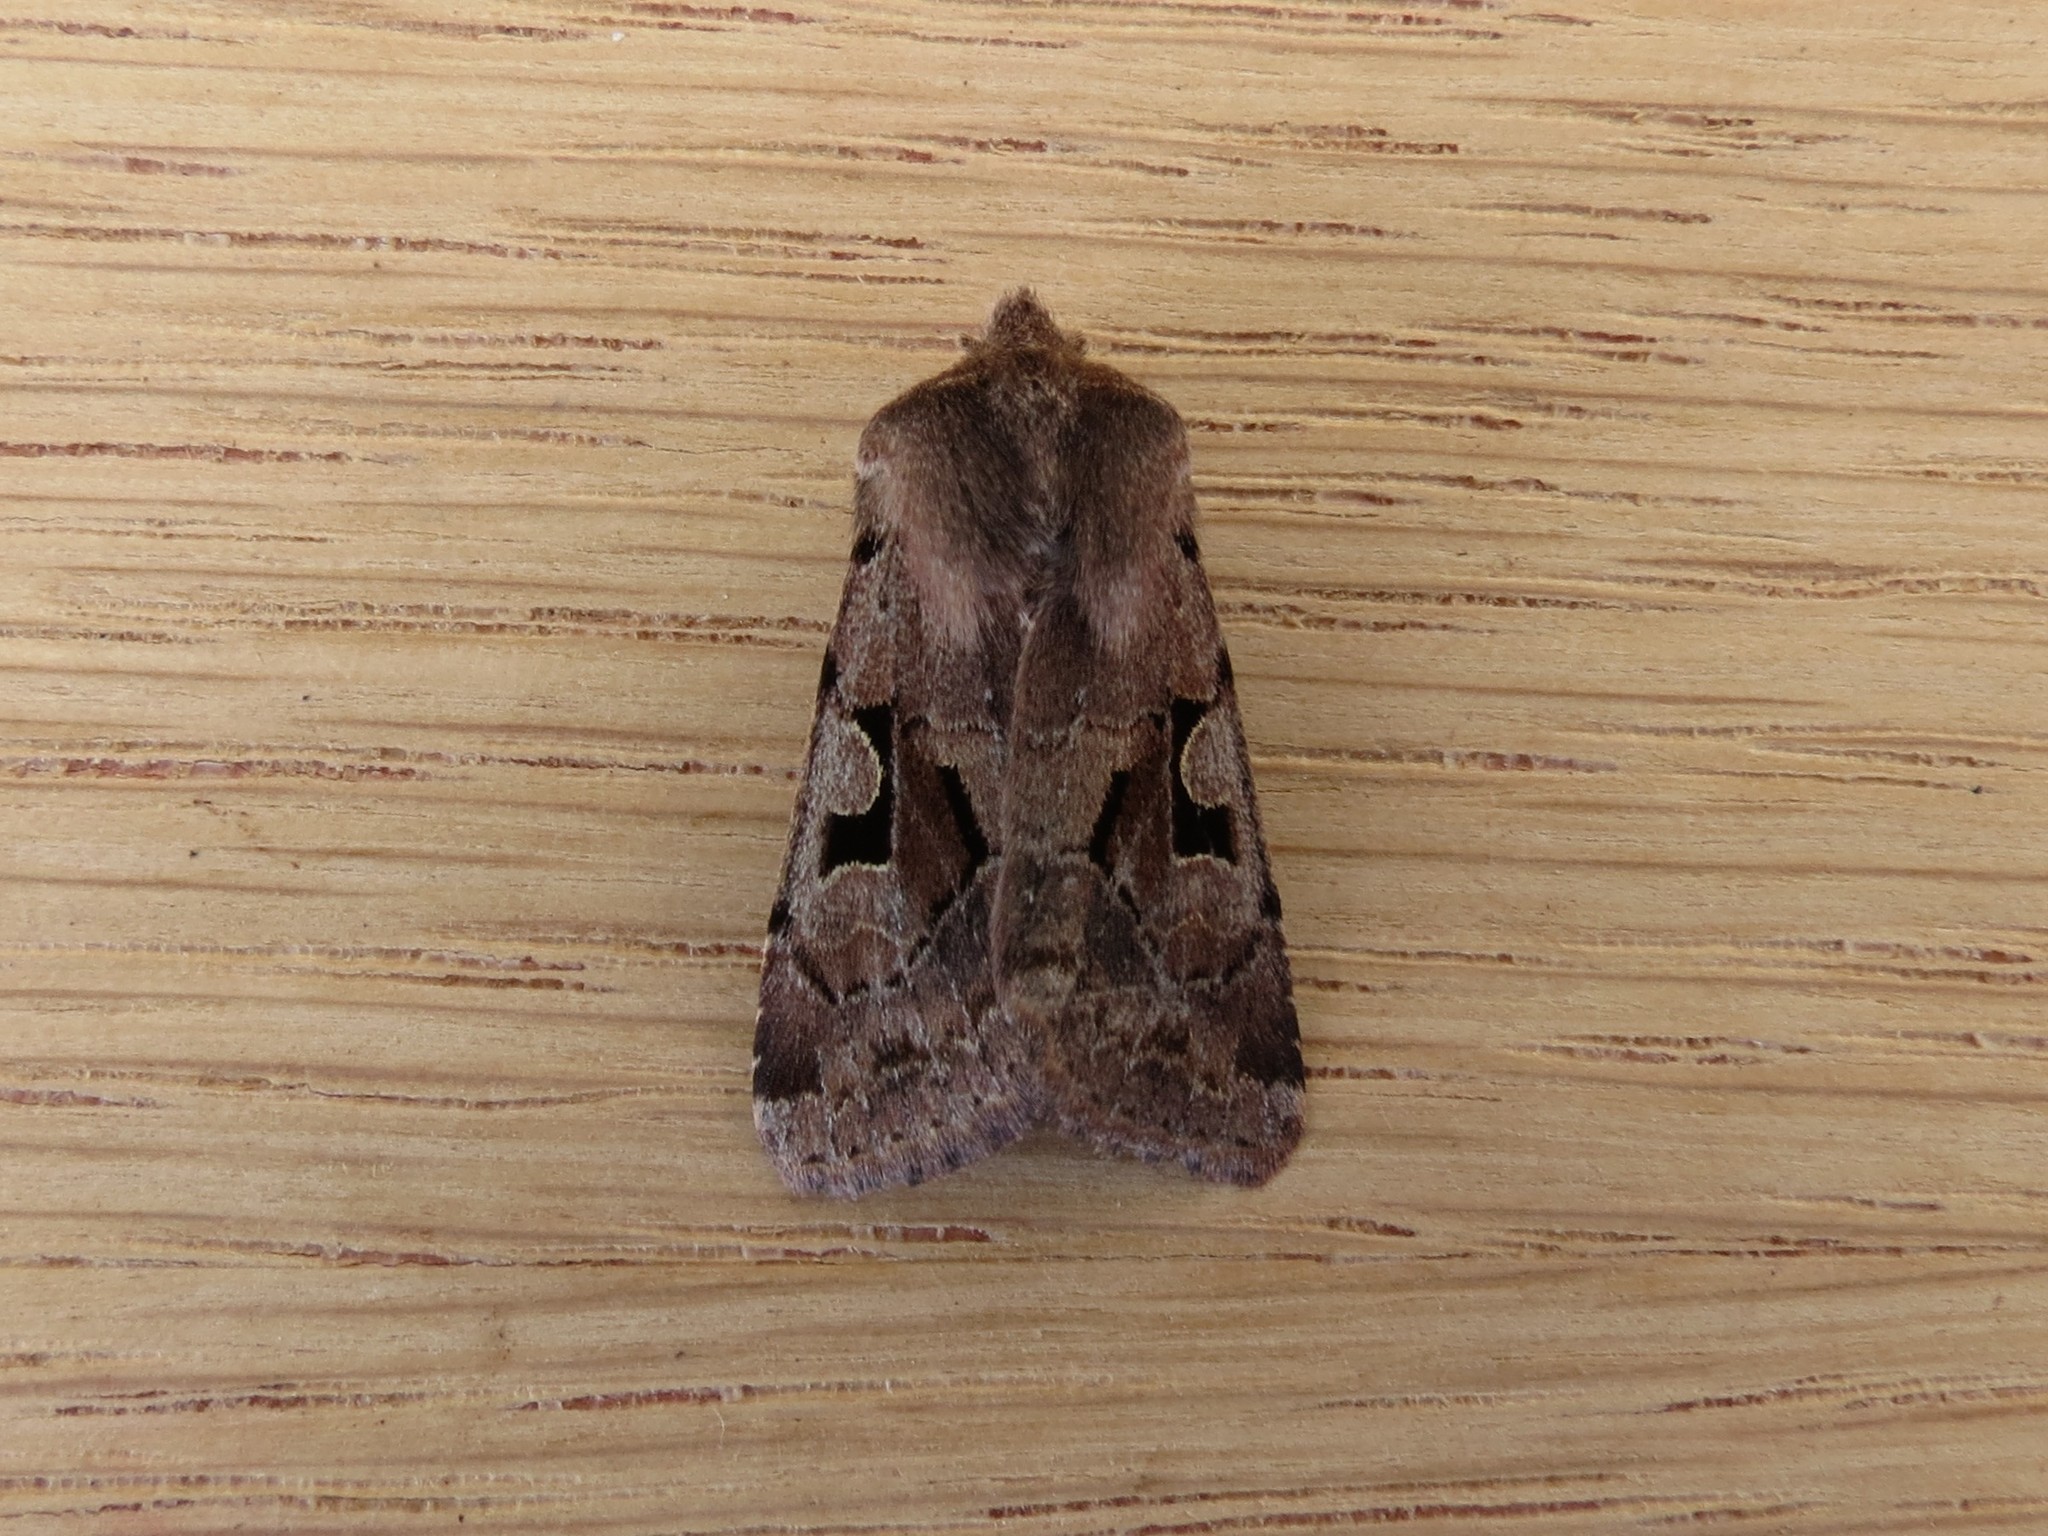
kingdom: Animalia
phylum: Arthropoda
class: Insecta
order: Lepidoptera
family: Noctuidae
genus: Orthosia
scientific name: Orthosia gothica
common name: Hebrew character
